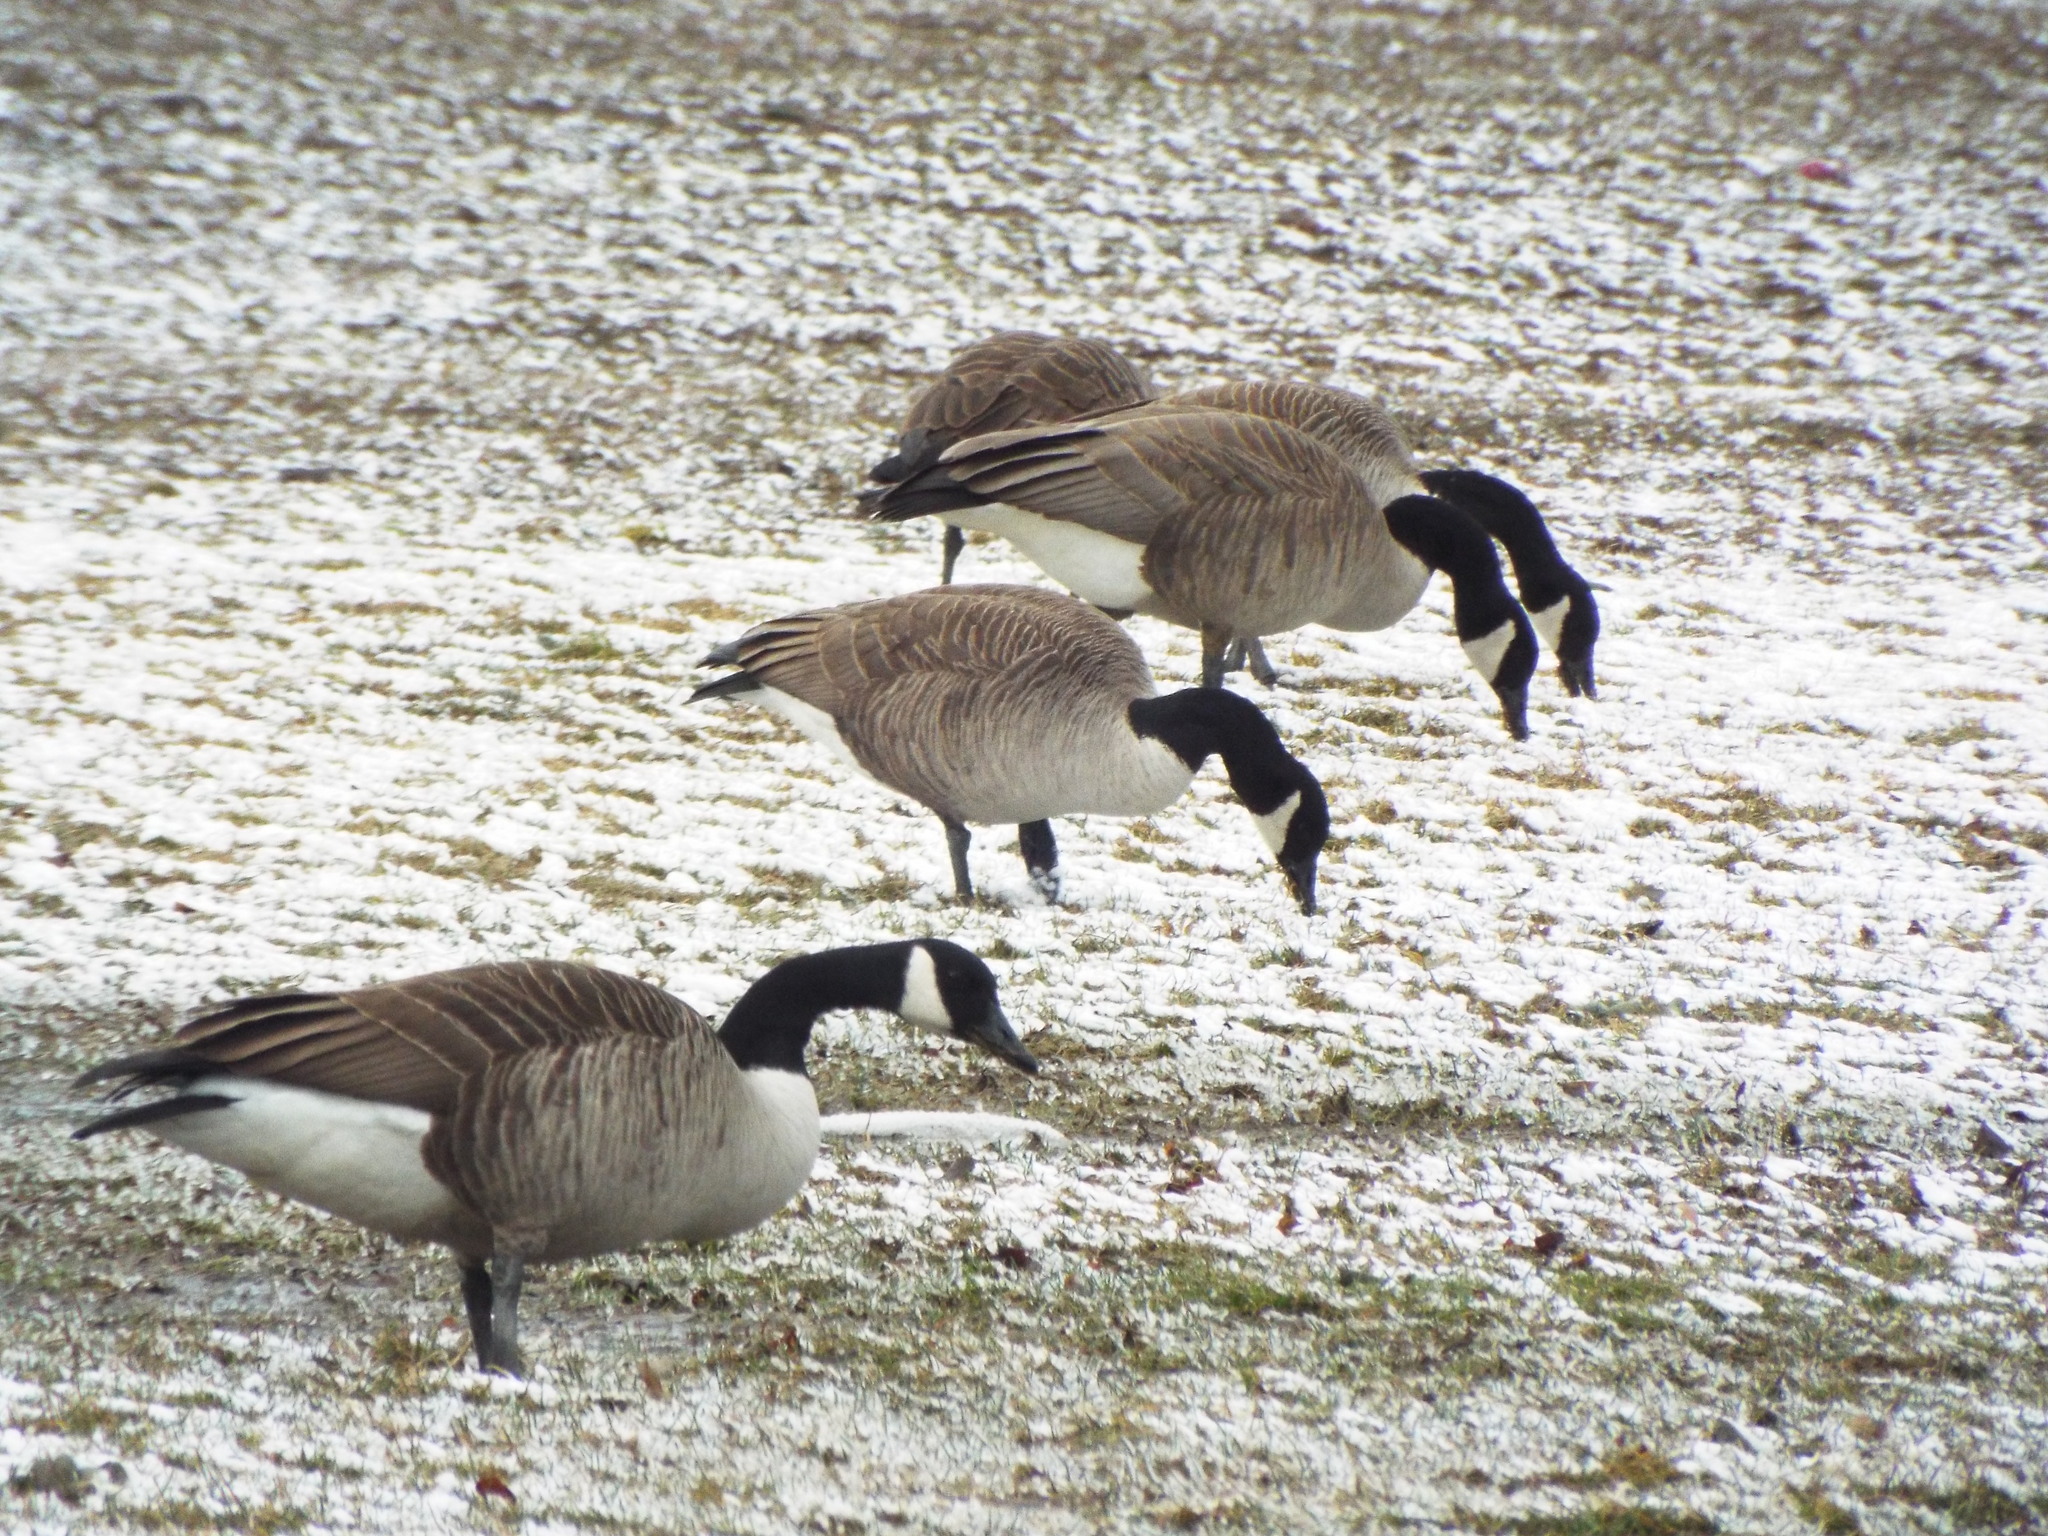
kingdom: Animalia
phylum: Chordata
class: Aves
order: Anseriformes
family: Anatidae
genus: Branta
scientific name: Branta canadensis
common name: Canada goose
